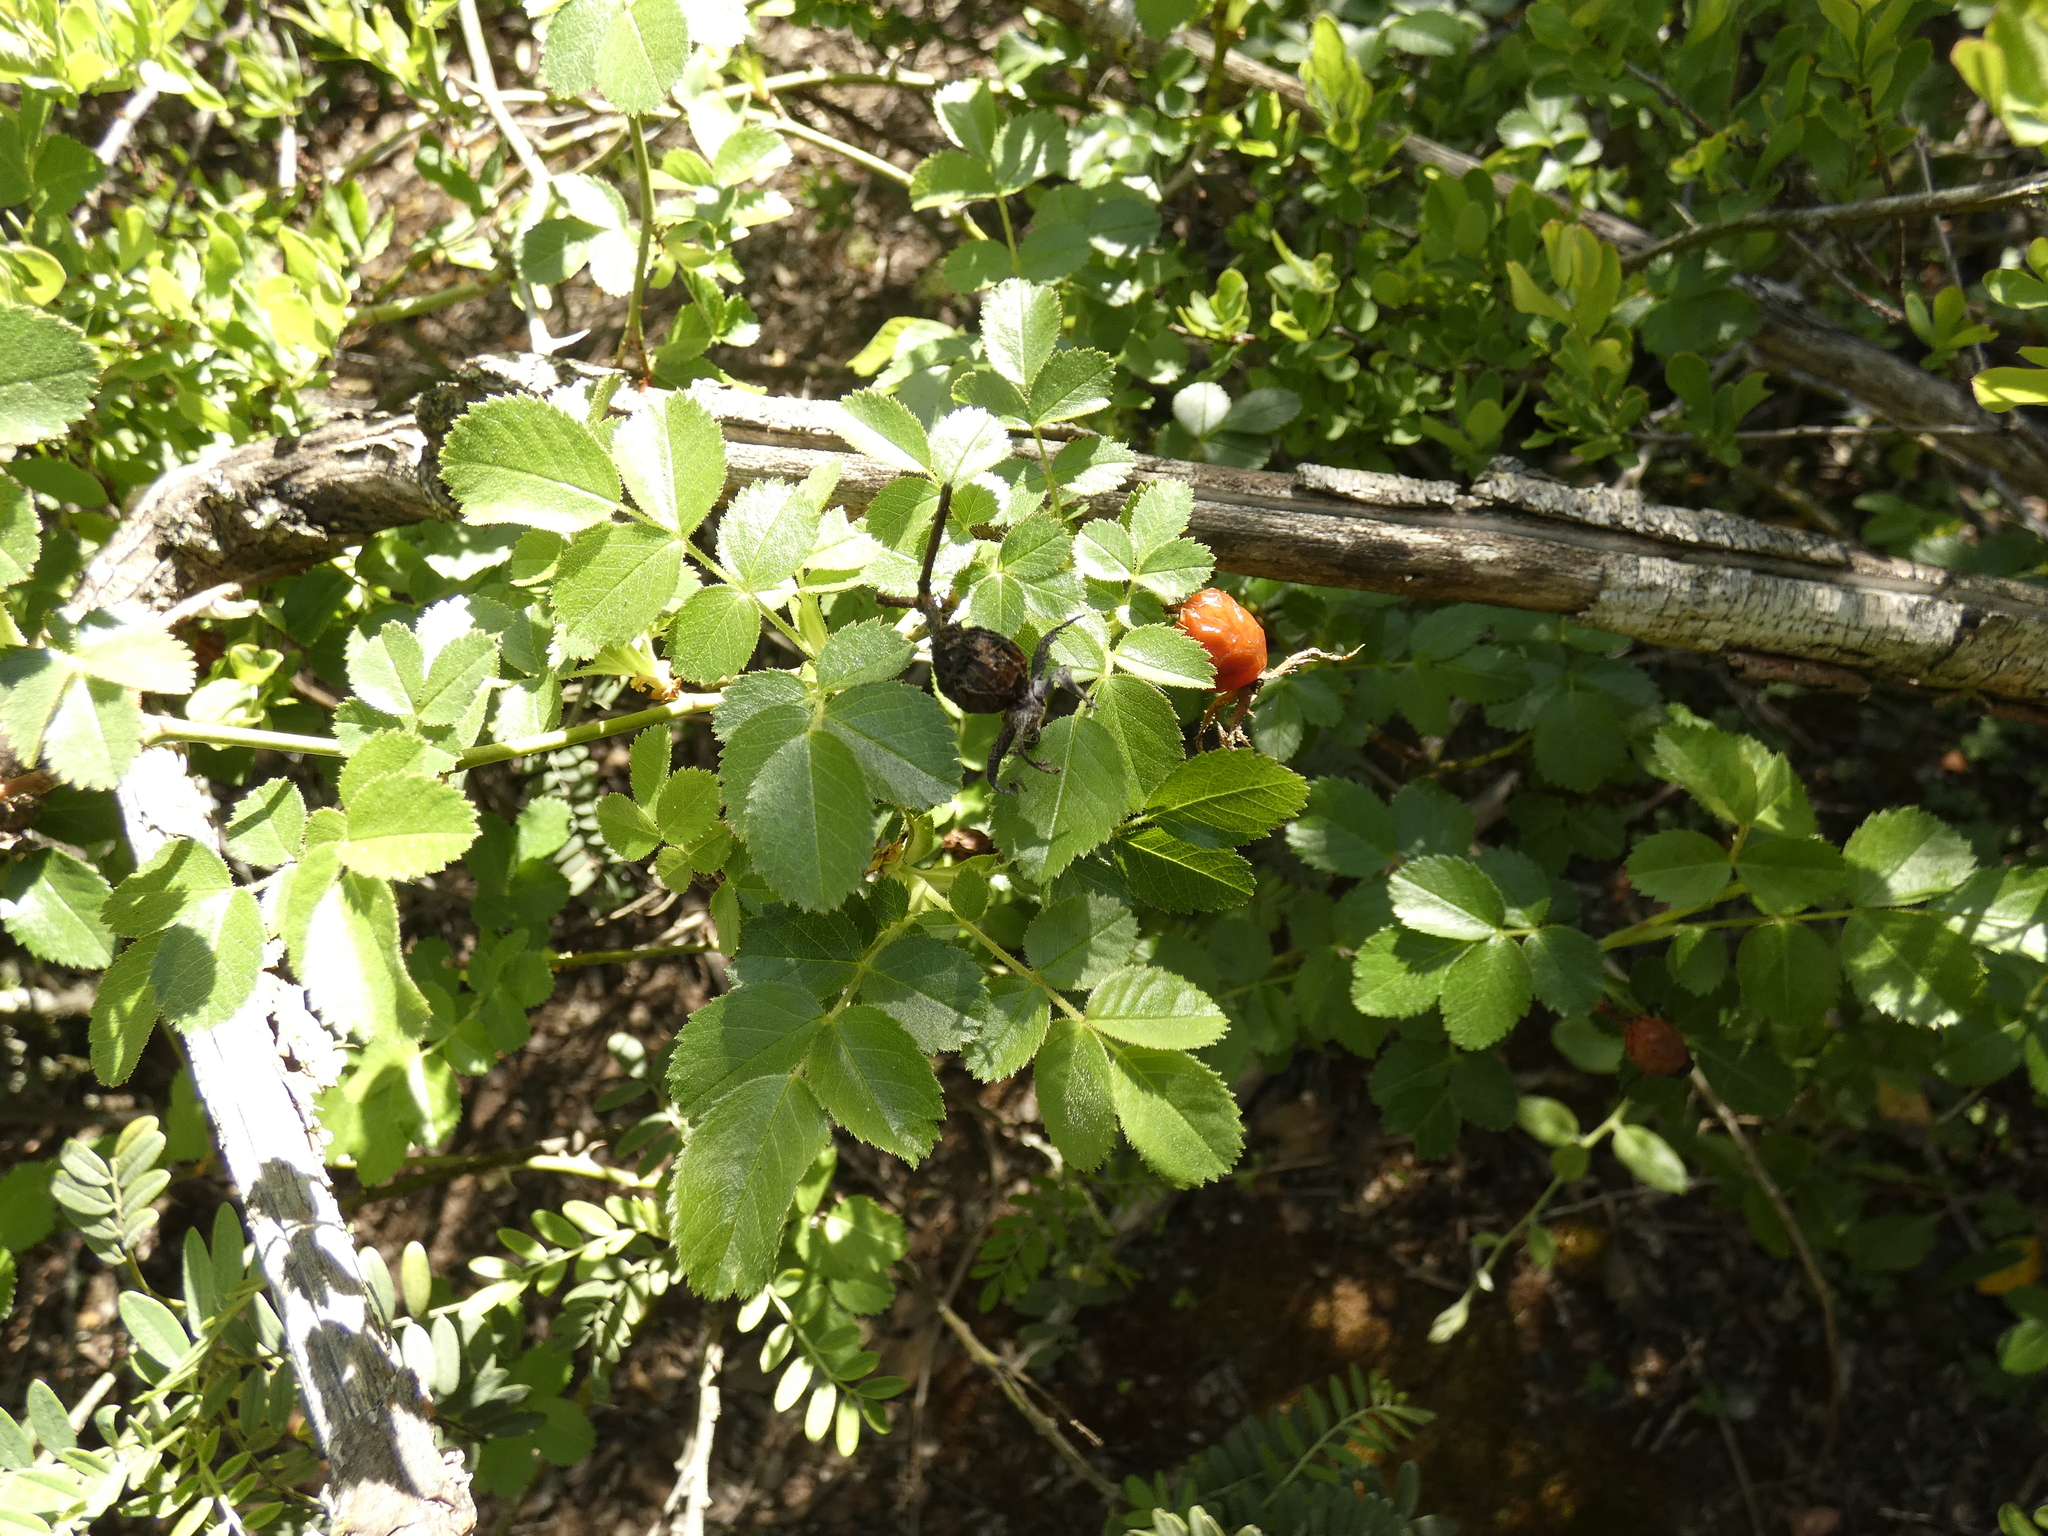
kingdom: Plantae
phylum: Tracheophyta
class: Magnoliopsida
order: Rosales
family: Rosaceae
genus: Rosa
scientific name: Rosa rubiginosa
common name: Sweet-briar
